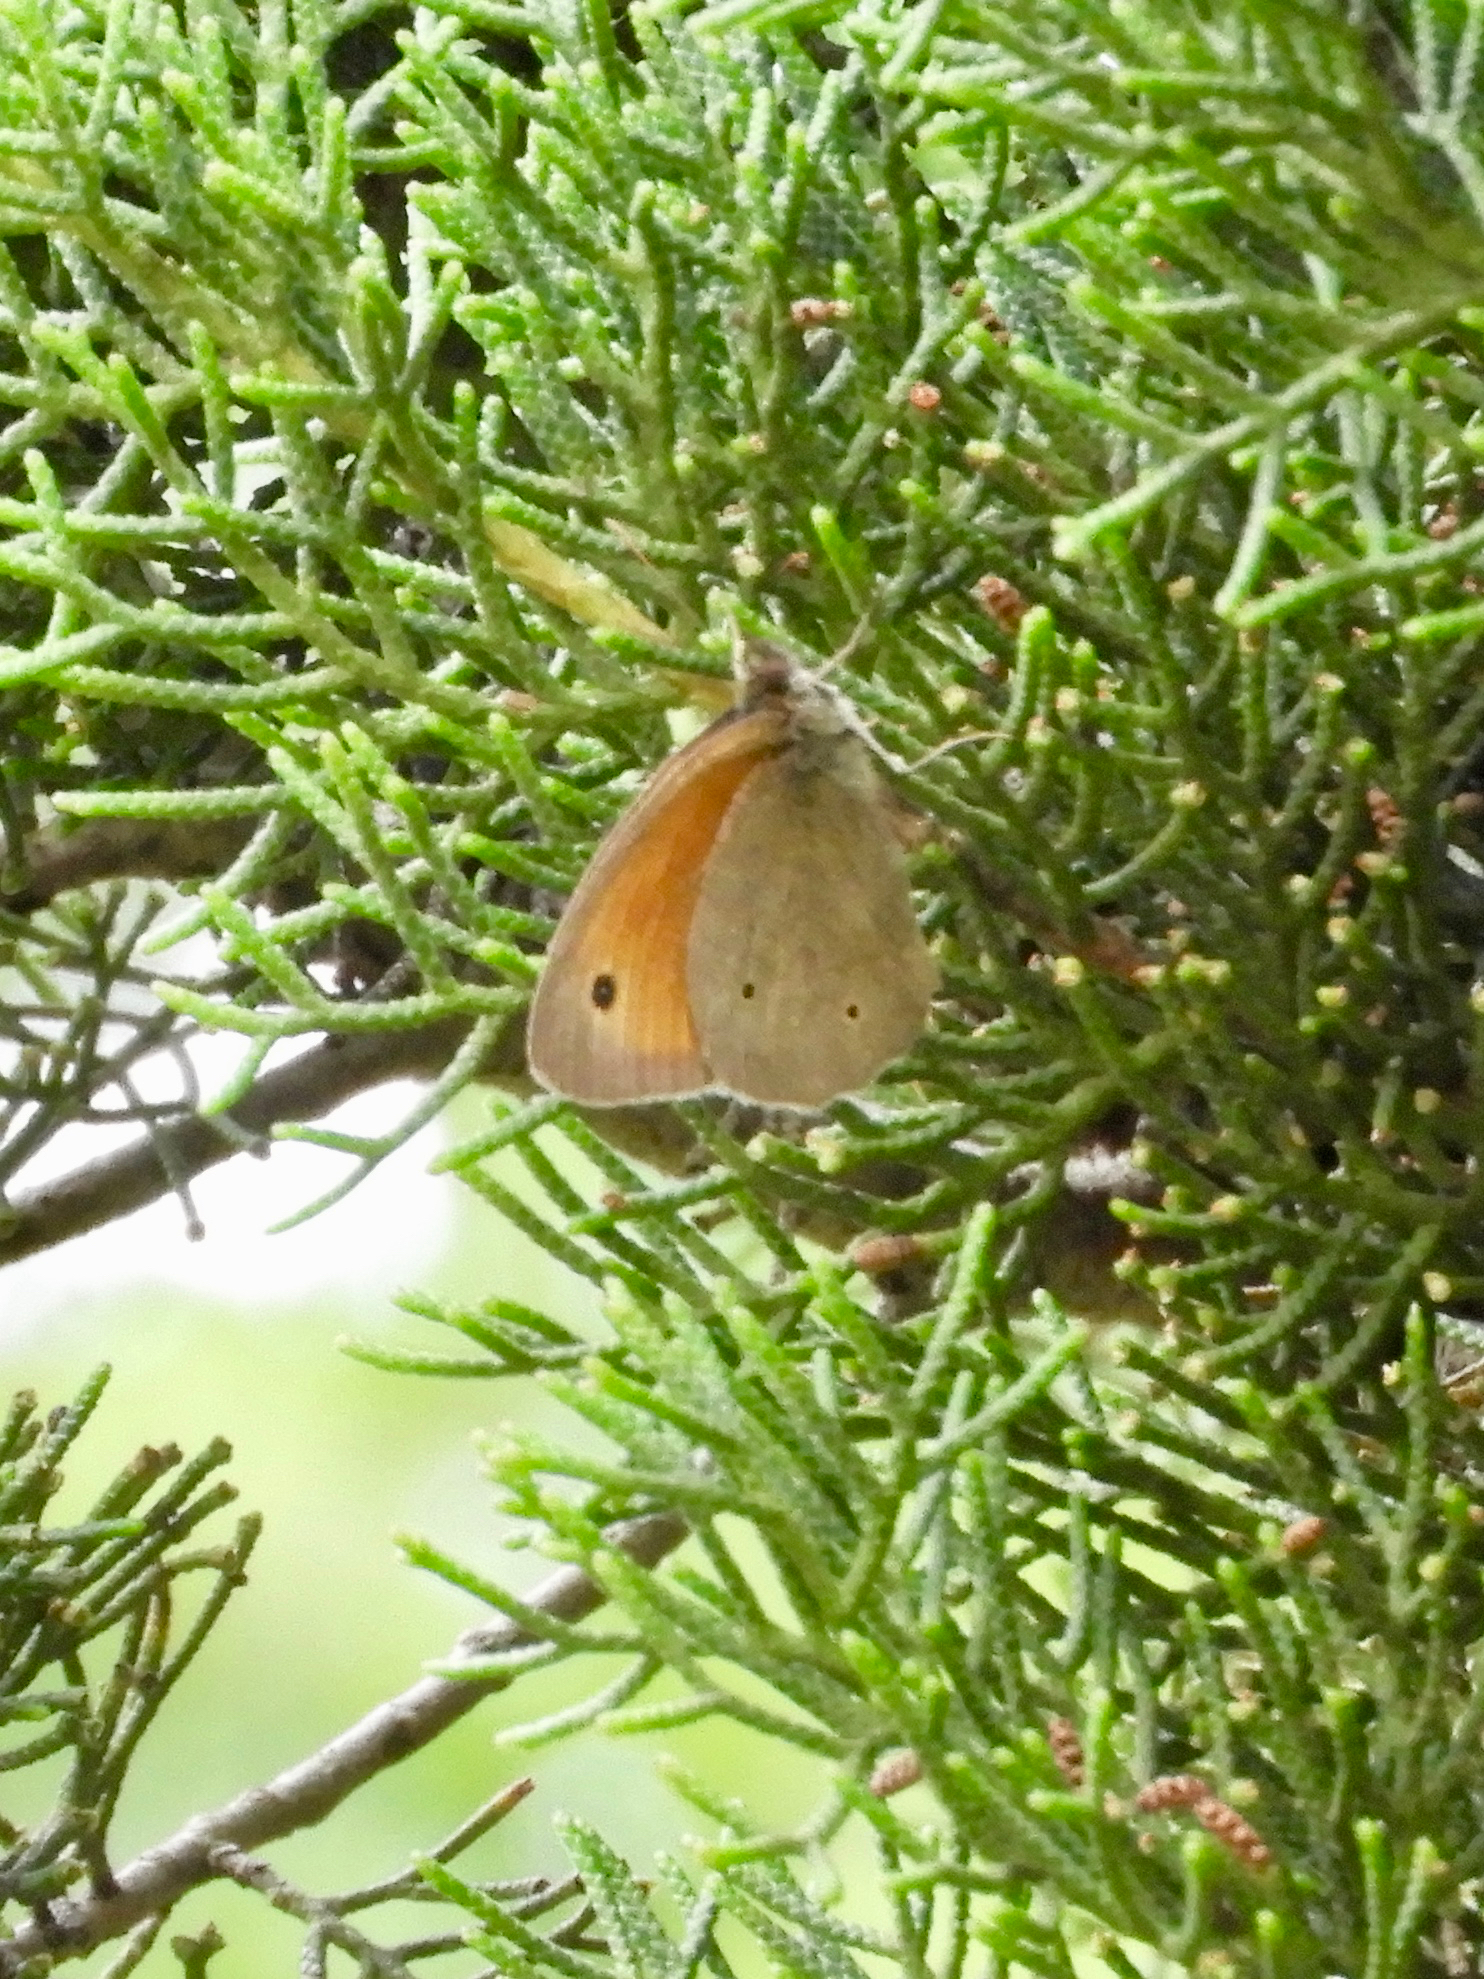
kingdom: Animalia
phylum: Arthropoda
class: Insecta
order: Lepidoptera
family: Nymphalidae
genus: Maniola
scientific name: Maniola jurtina
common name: Meadow brown
